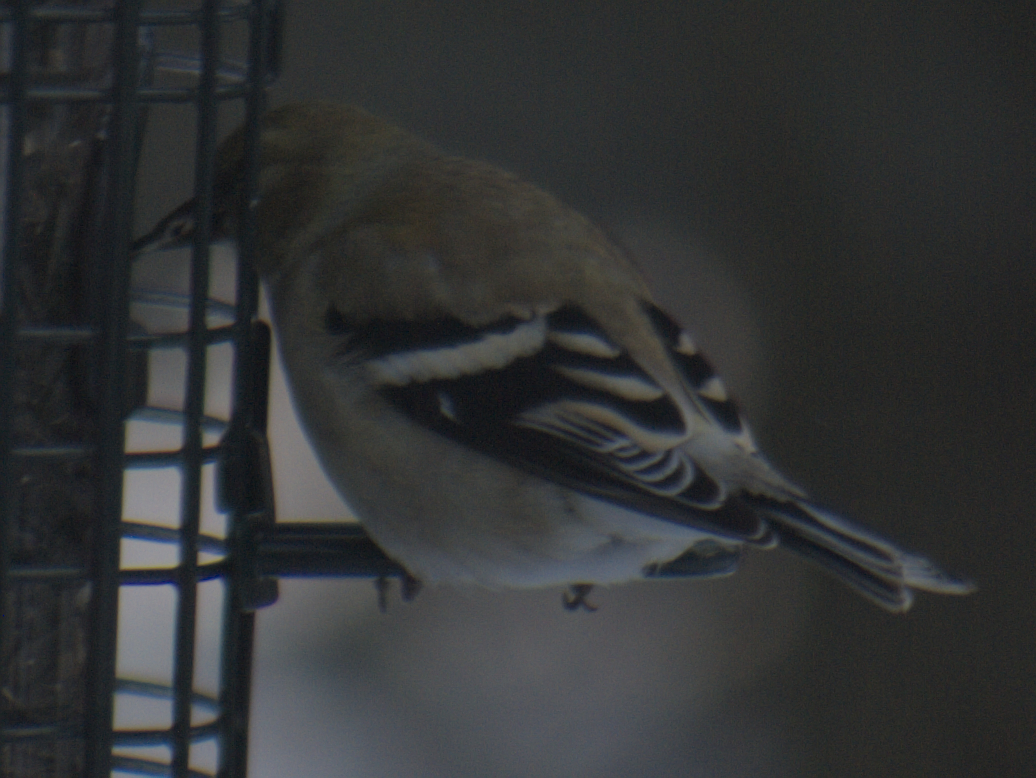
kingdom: Animalia
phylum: Chordata
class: Aves
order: Passeriformes
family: Fringillidae
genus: Spinus
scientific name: Spinus tristis
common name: American goldfinch
